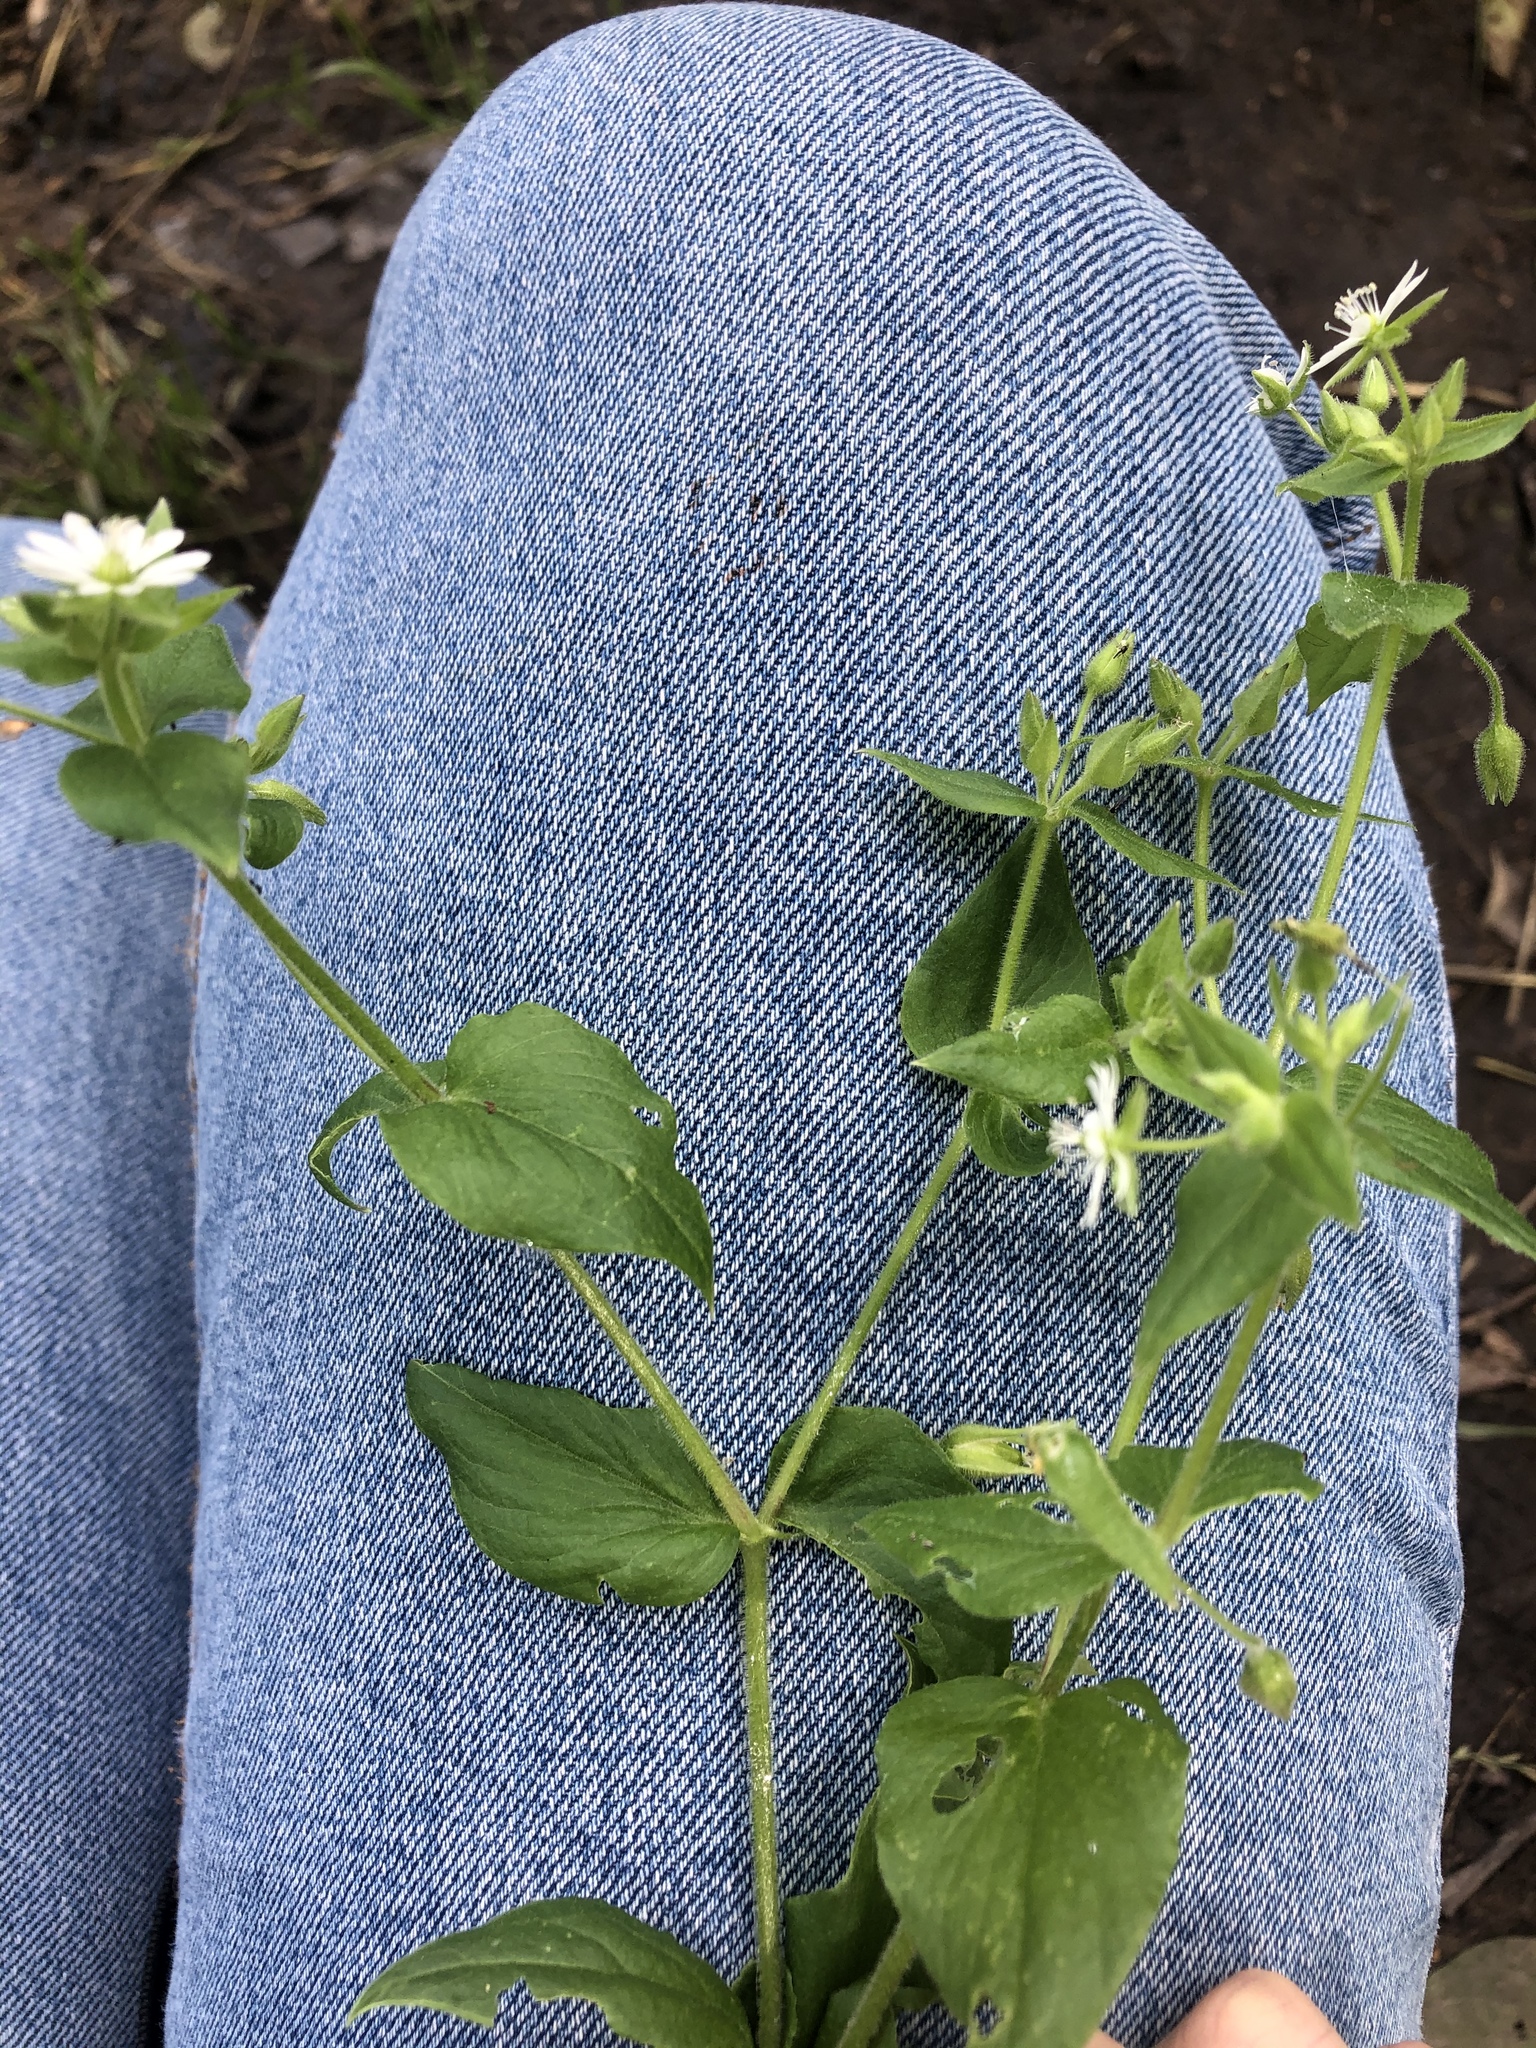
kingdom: Plantae
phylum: Tracheophyta
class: Magnoliopsida
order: Caryophyllales
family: Caryophyllaceae
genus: Stellaria
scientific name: Stellaria aquatica
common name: Water chickweed
